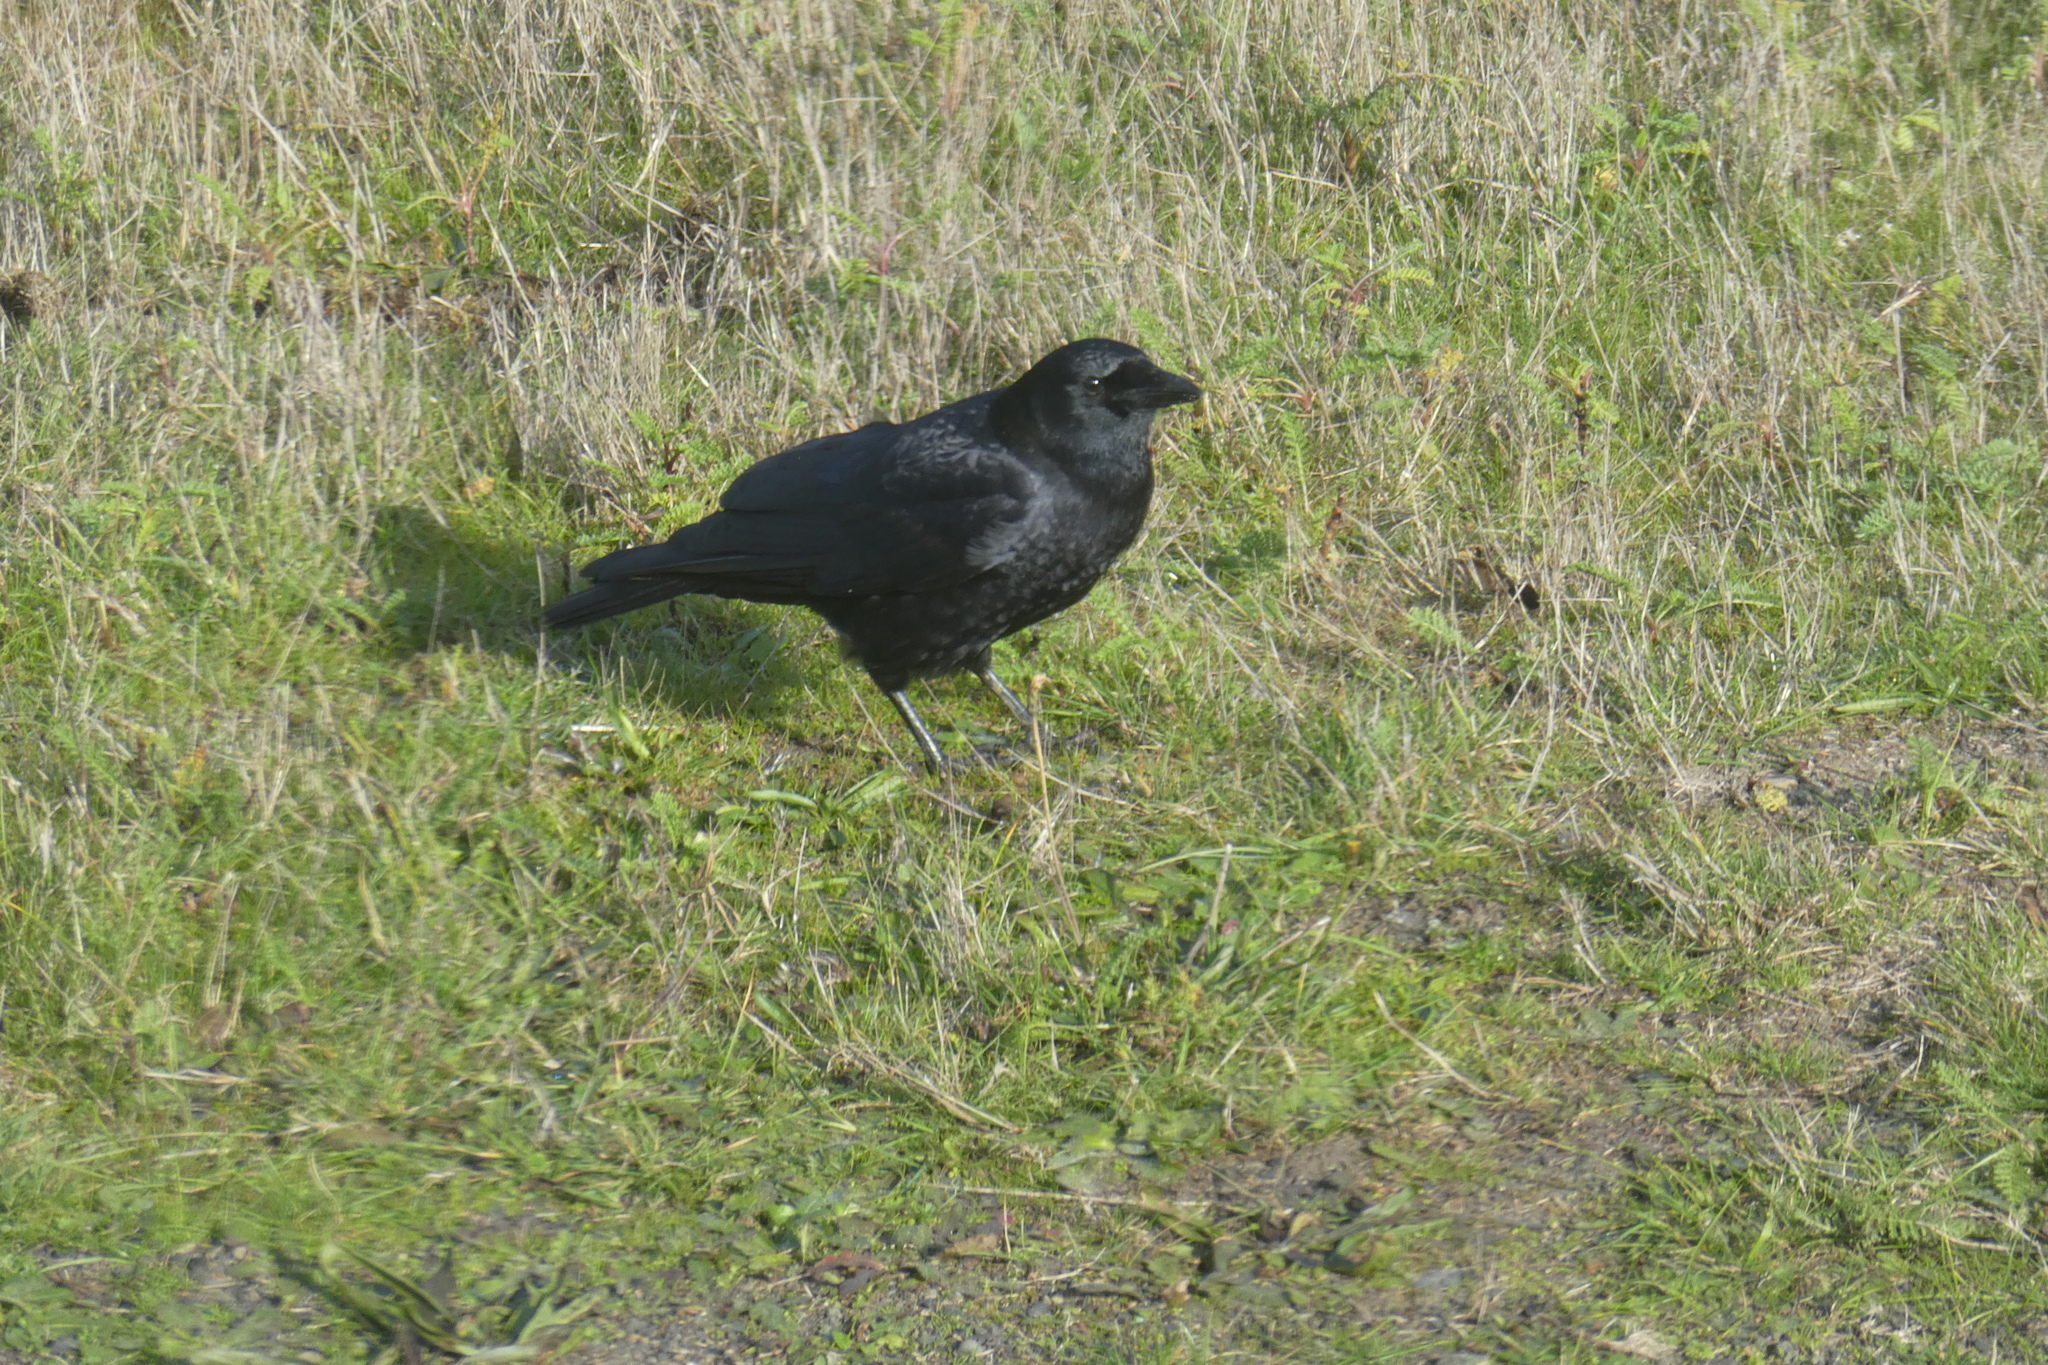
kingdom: Animalia
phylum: Chordata
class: Aves
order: Passeriformes
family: Corvidae
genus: Corvus
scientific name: Corvus brachyrhynchos
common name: American crow
